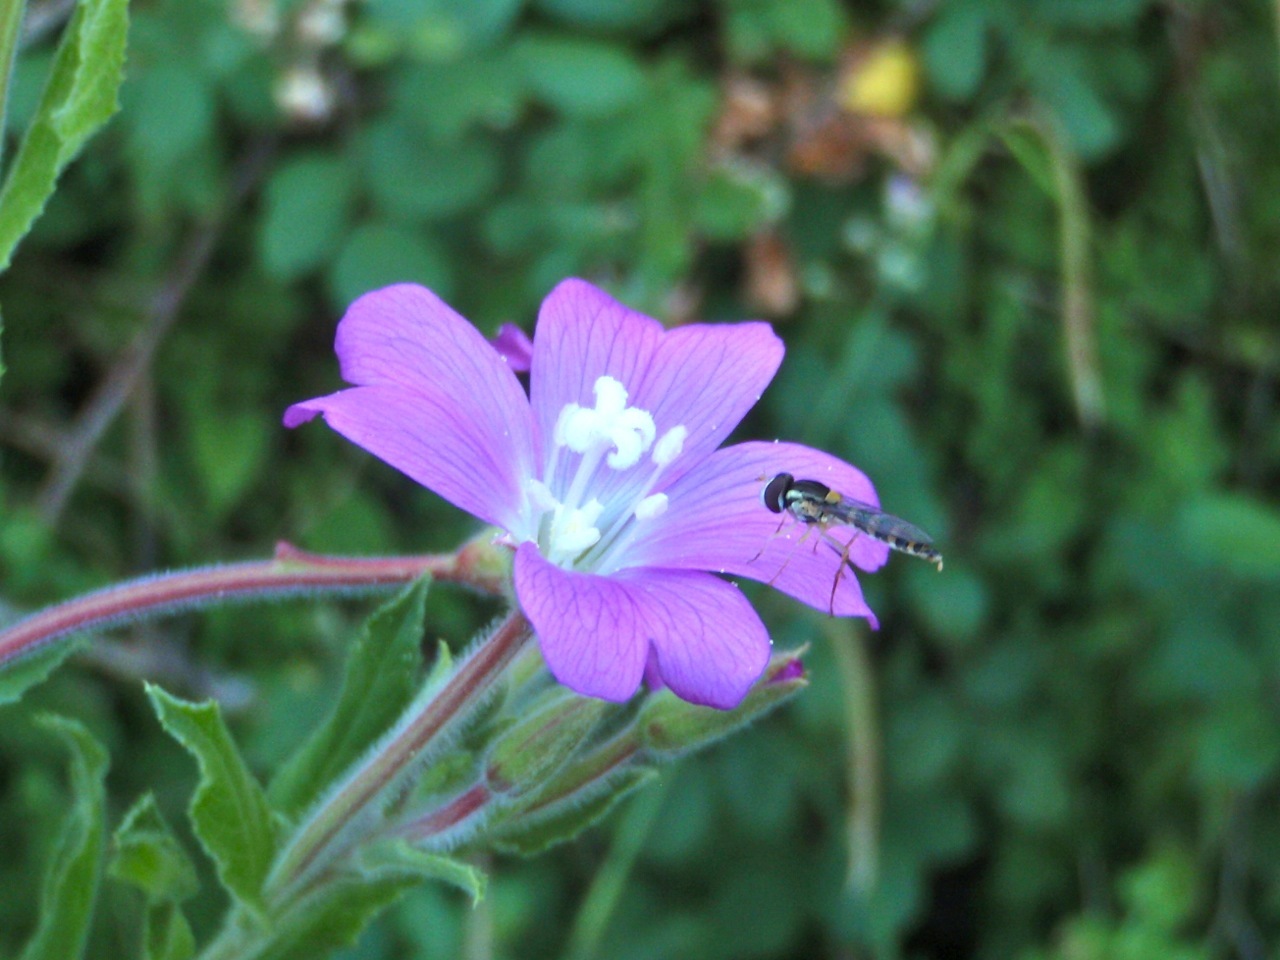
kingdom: Animalia
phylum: Arthropoda
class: Insecta
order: Diptera
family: Syrphidae
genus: Sphaerophoria
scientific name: Sphaerophoria
